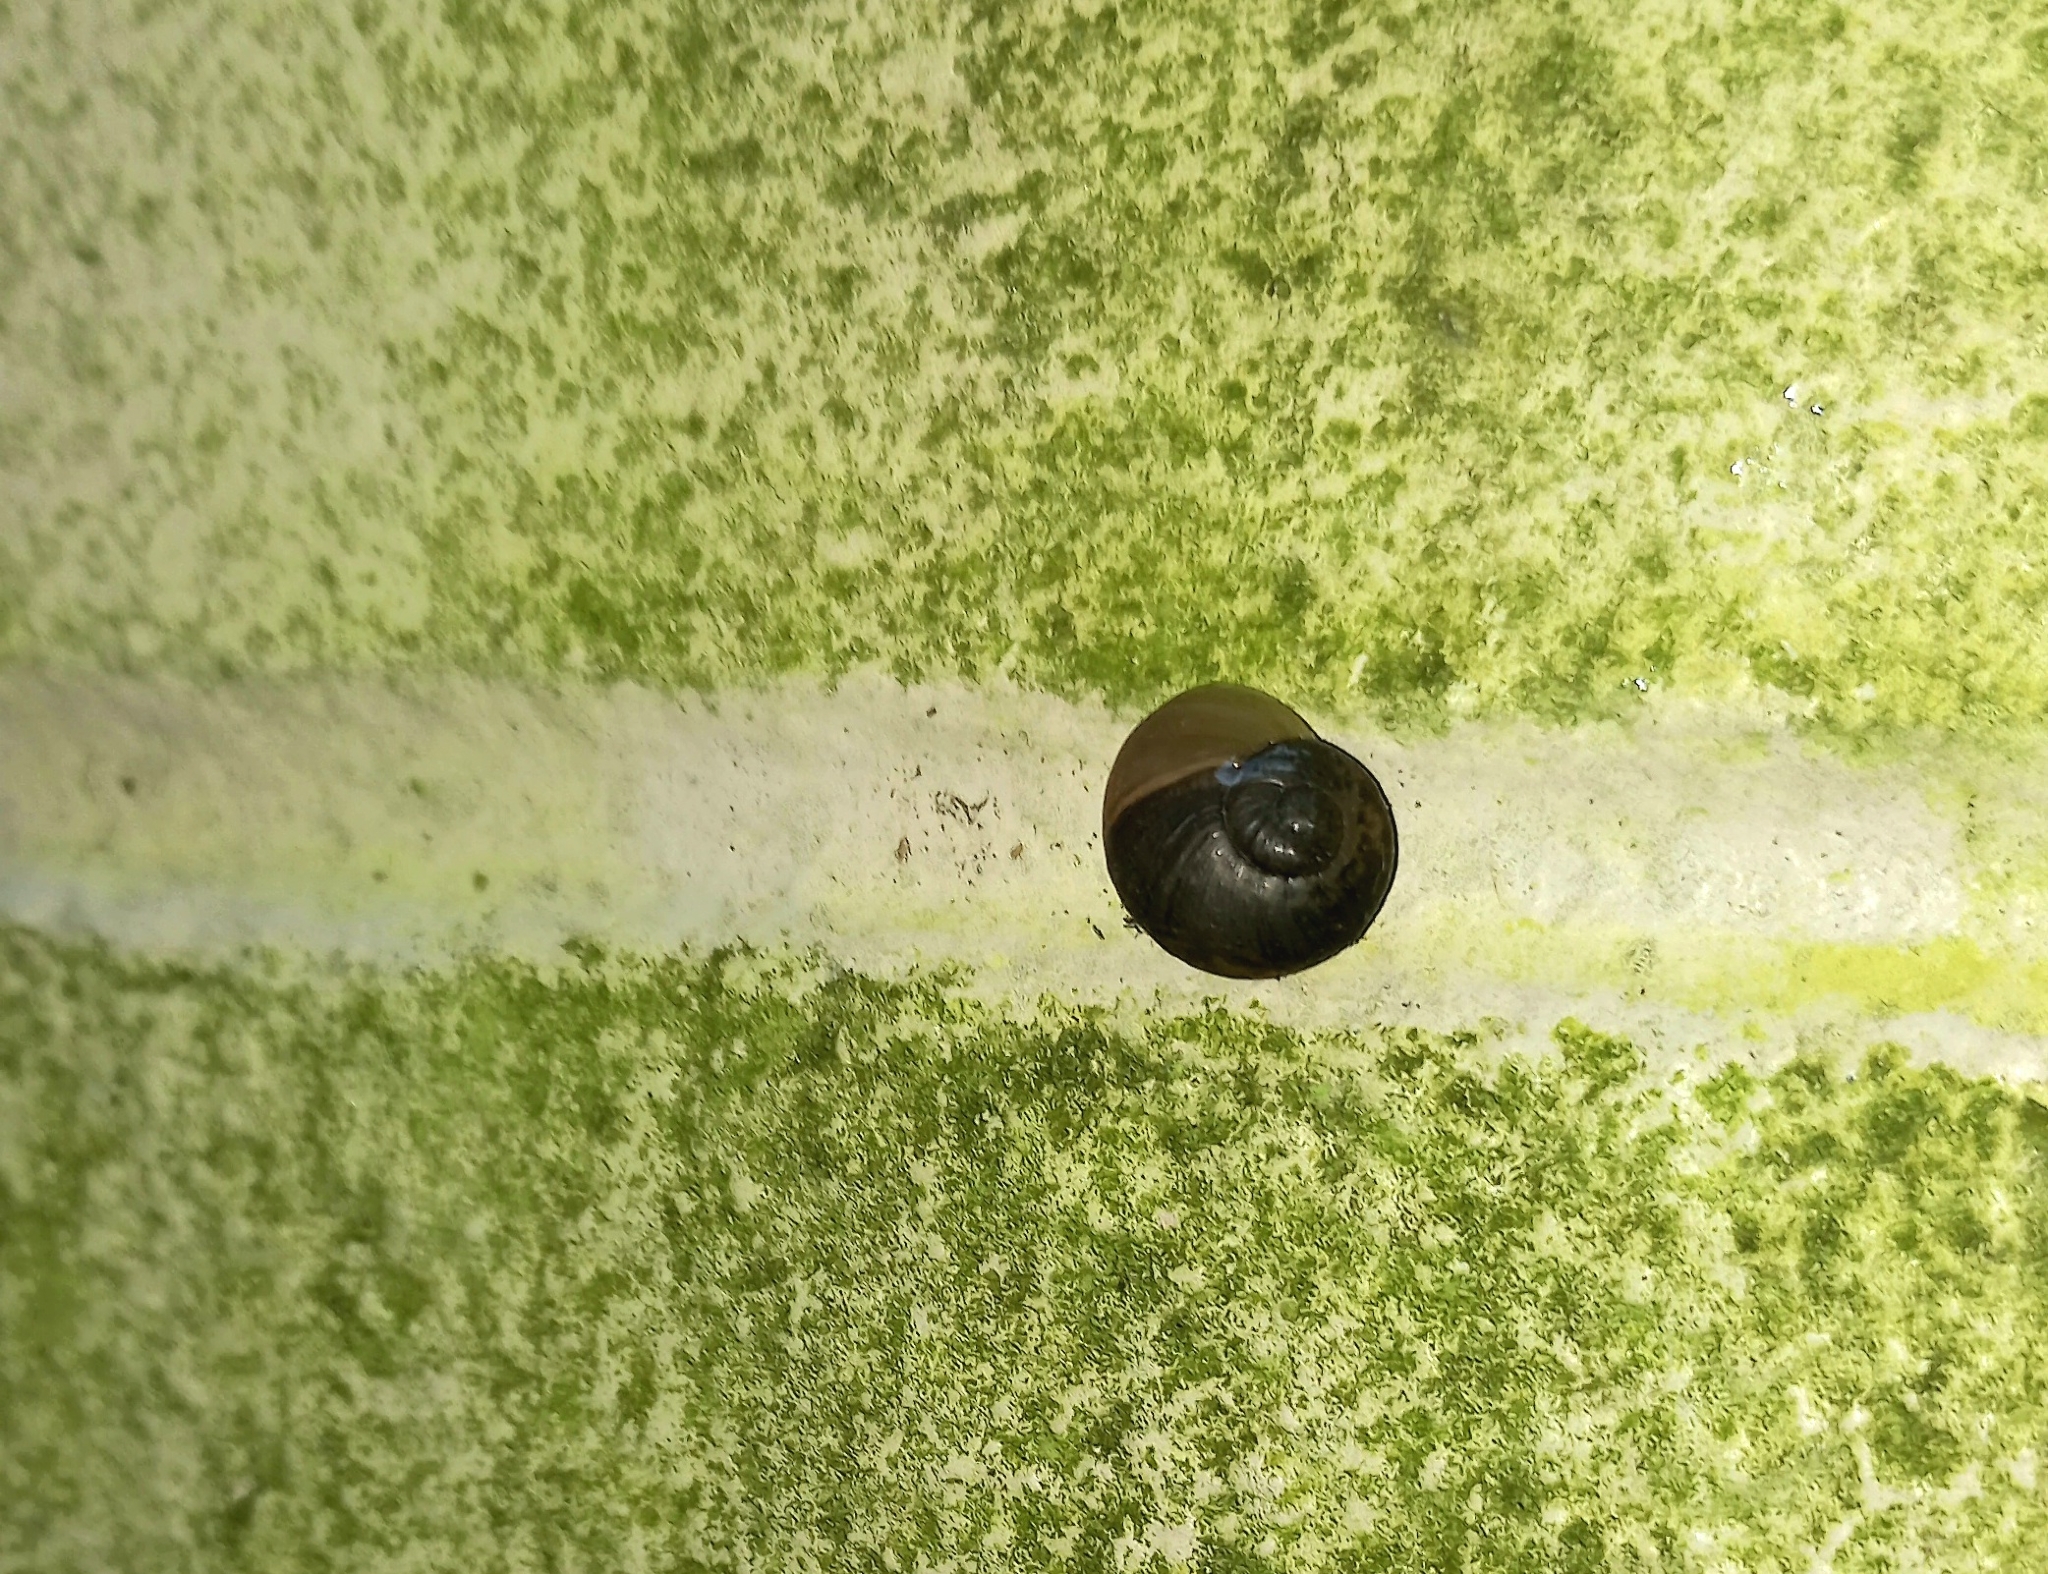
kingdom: Animalia
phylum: Mollusca
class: Gastropoda
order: Stylommatophora
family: Helicidae
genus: Cornu
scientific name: Cornu aspersum
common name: Brown garden snail
